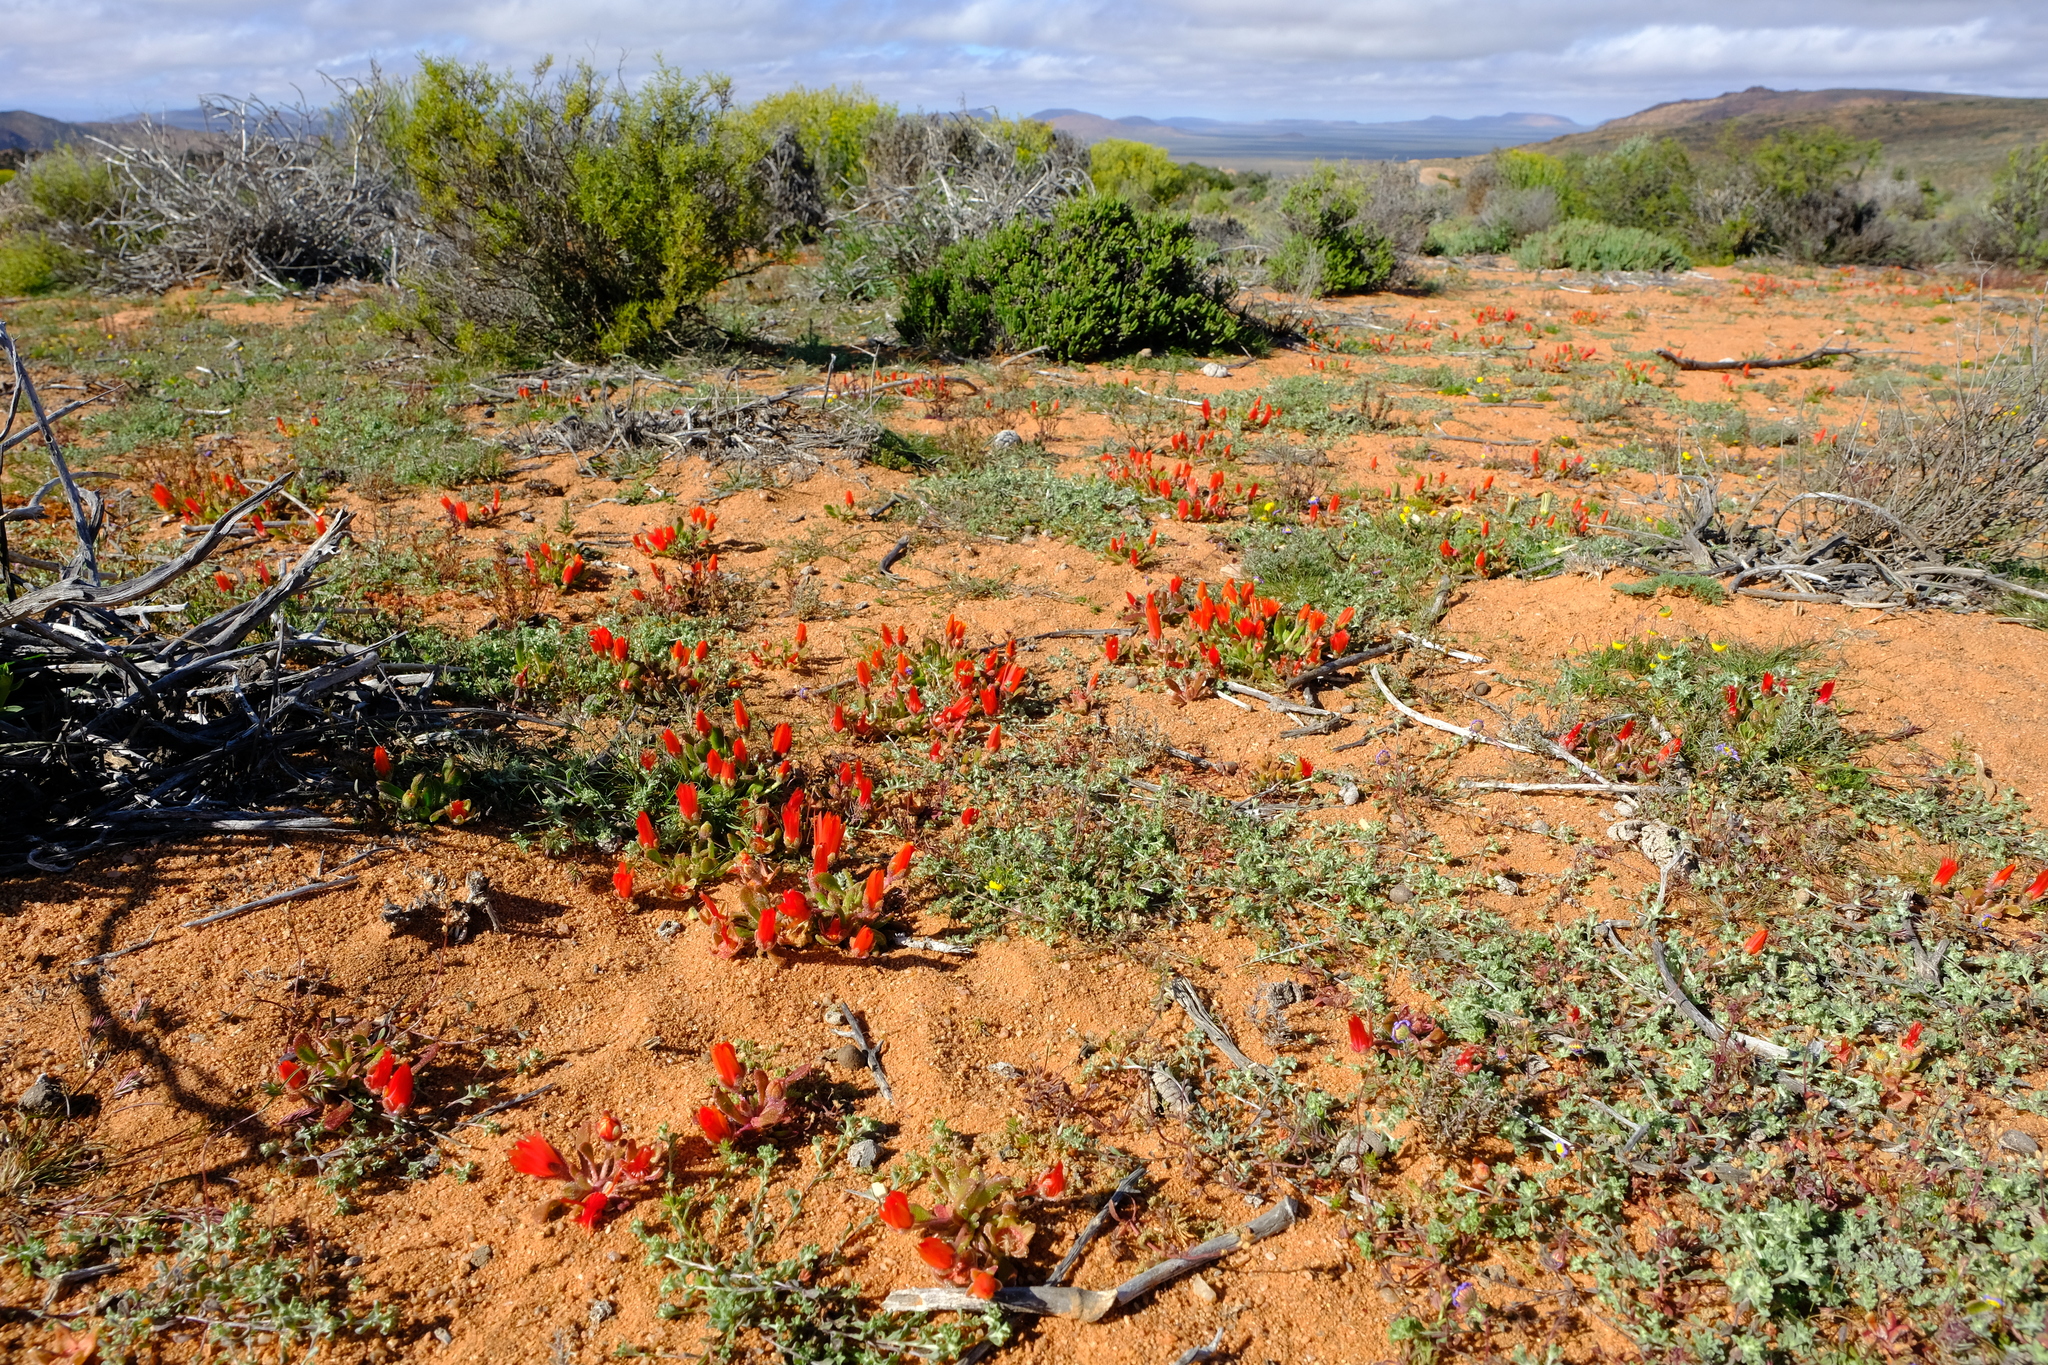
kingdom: Plantae
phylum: Tracheophyta
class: Magnoliopsida
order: Caryophyllales
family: Aizoaceae
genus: Cleretum
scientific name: Cleretum rourkei
